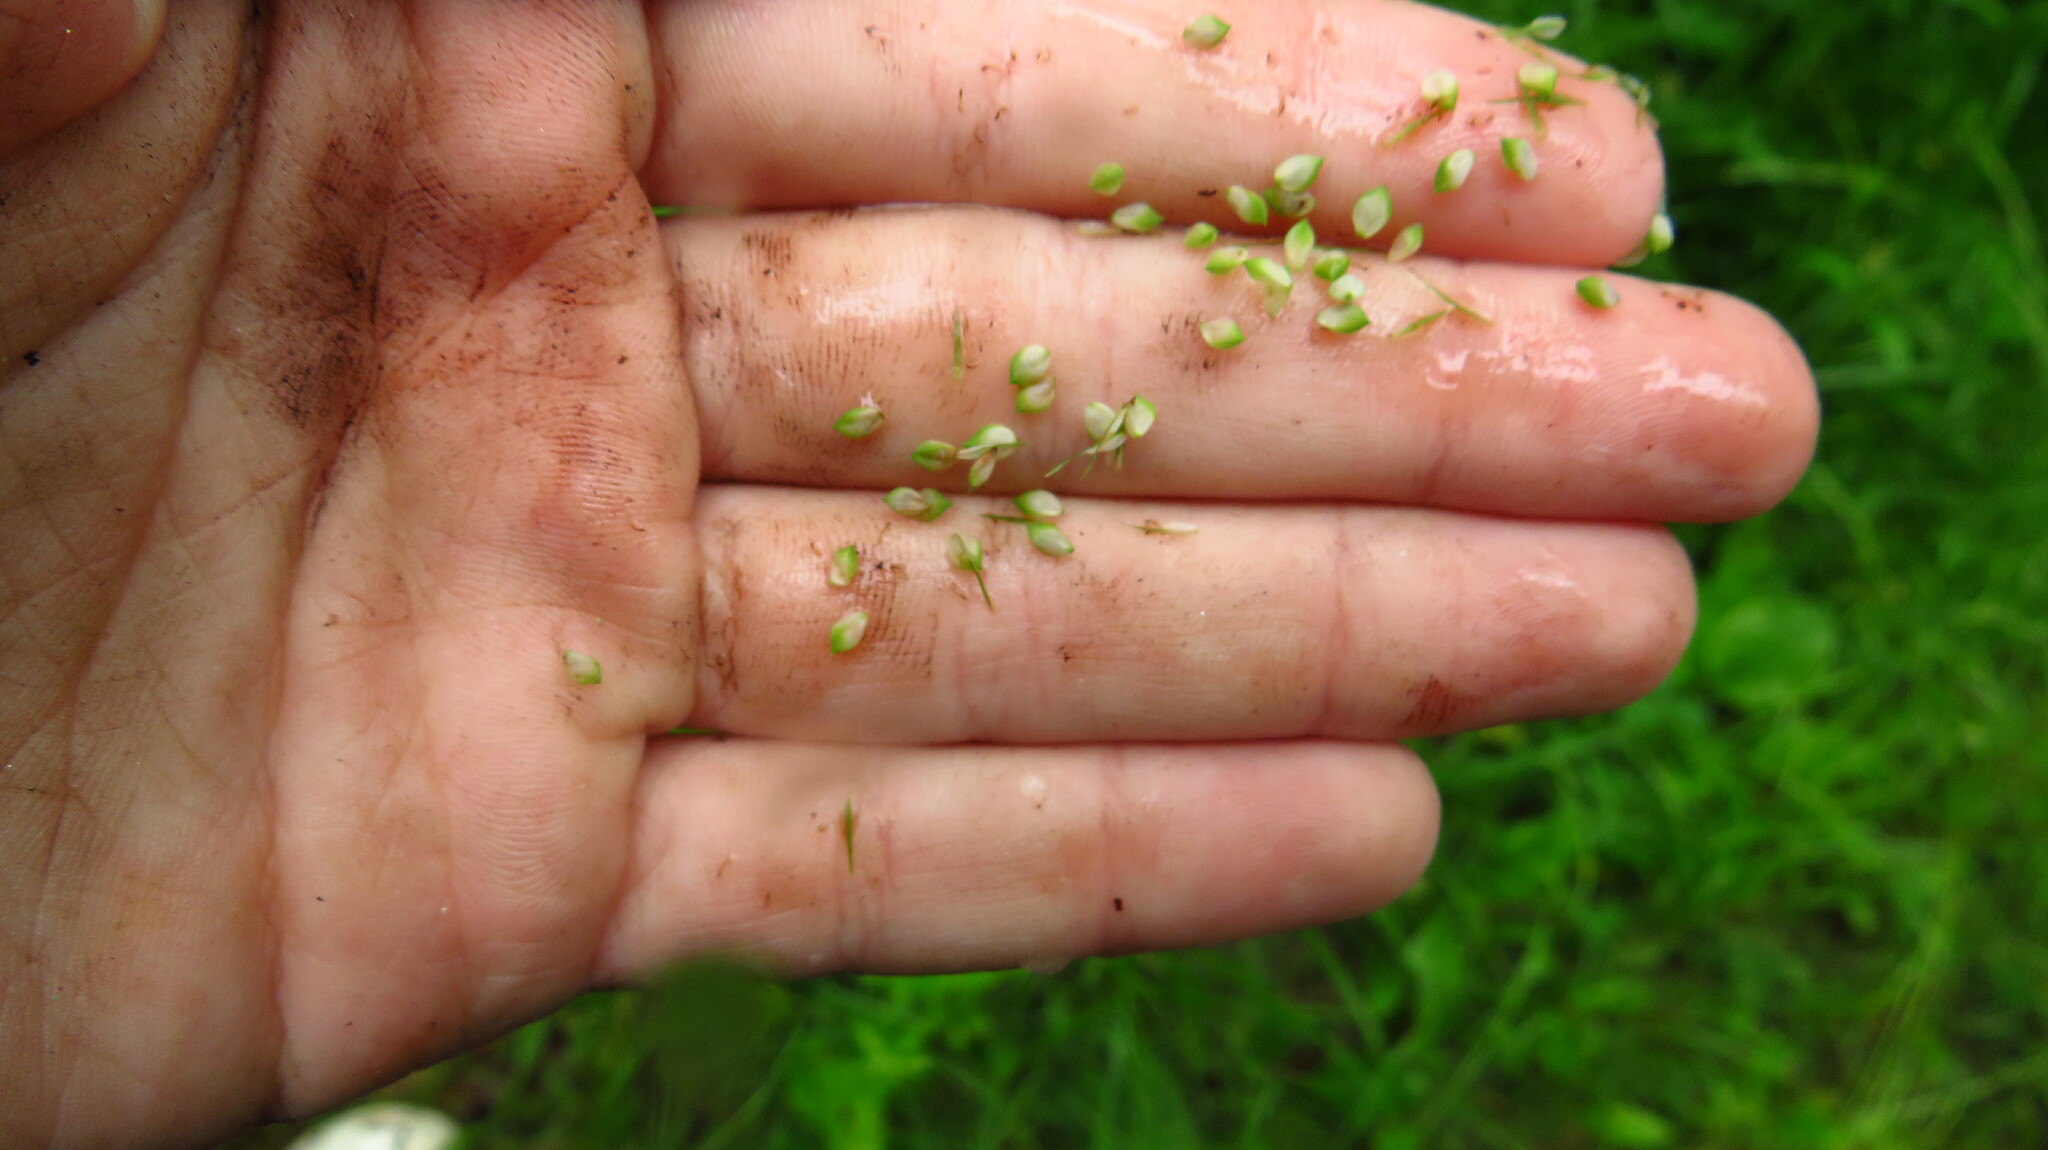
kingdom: Plantae
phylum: Tracheophyta
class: Liliopsida
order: Poales
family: Cyperaceae
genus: Carex
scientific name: Carex crinita
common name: Fringed sedge
